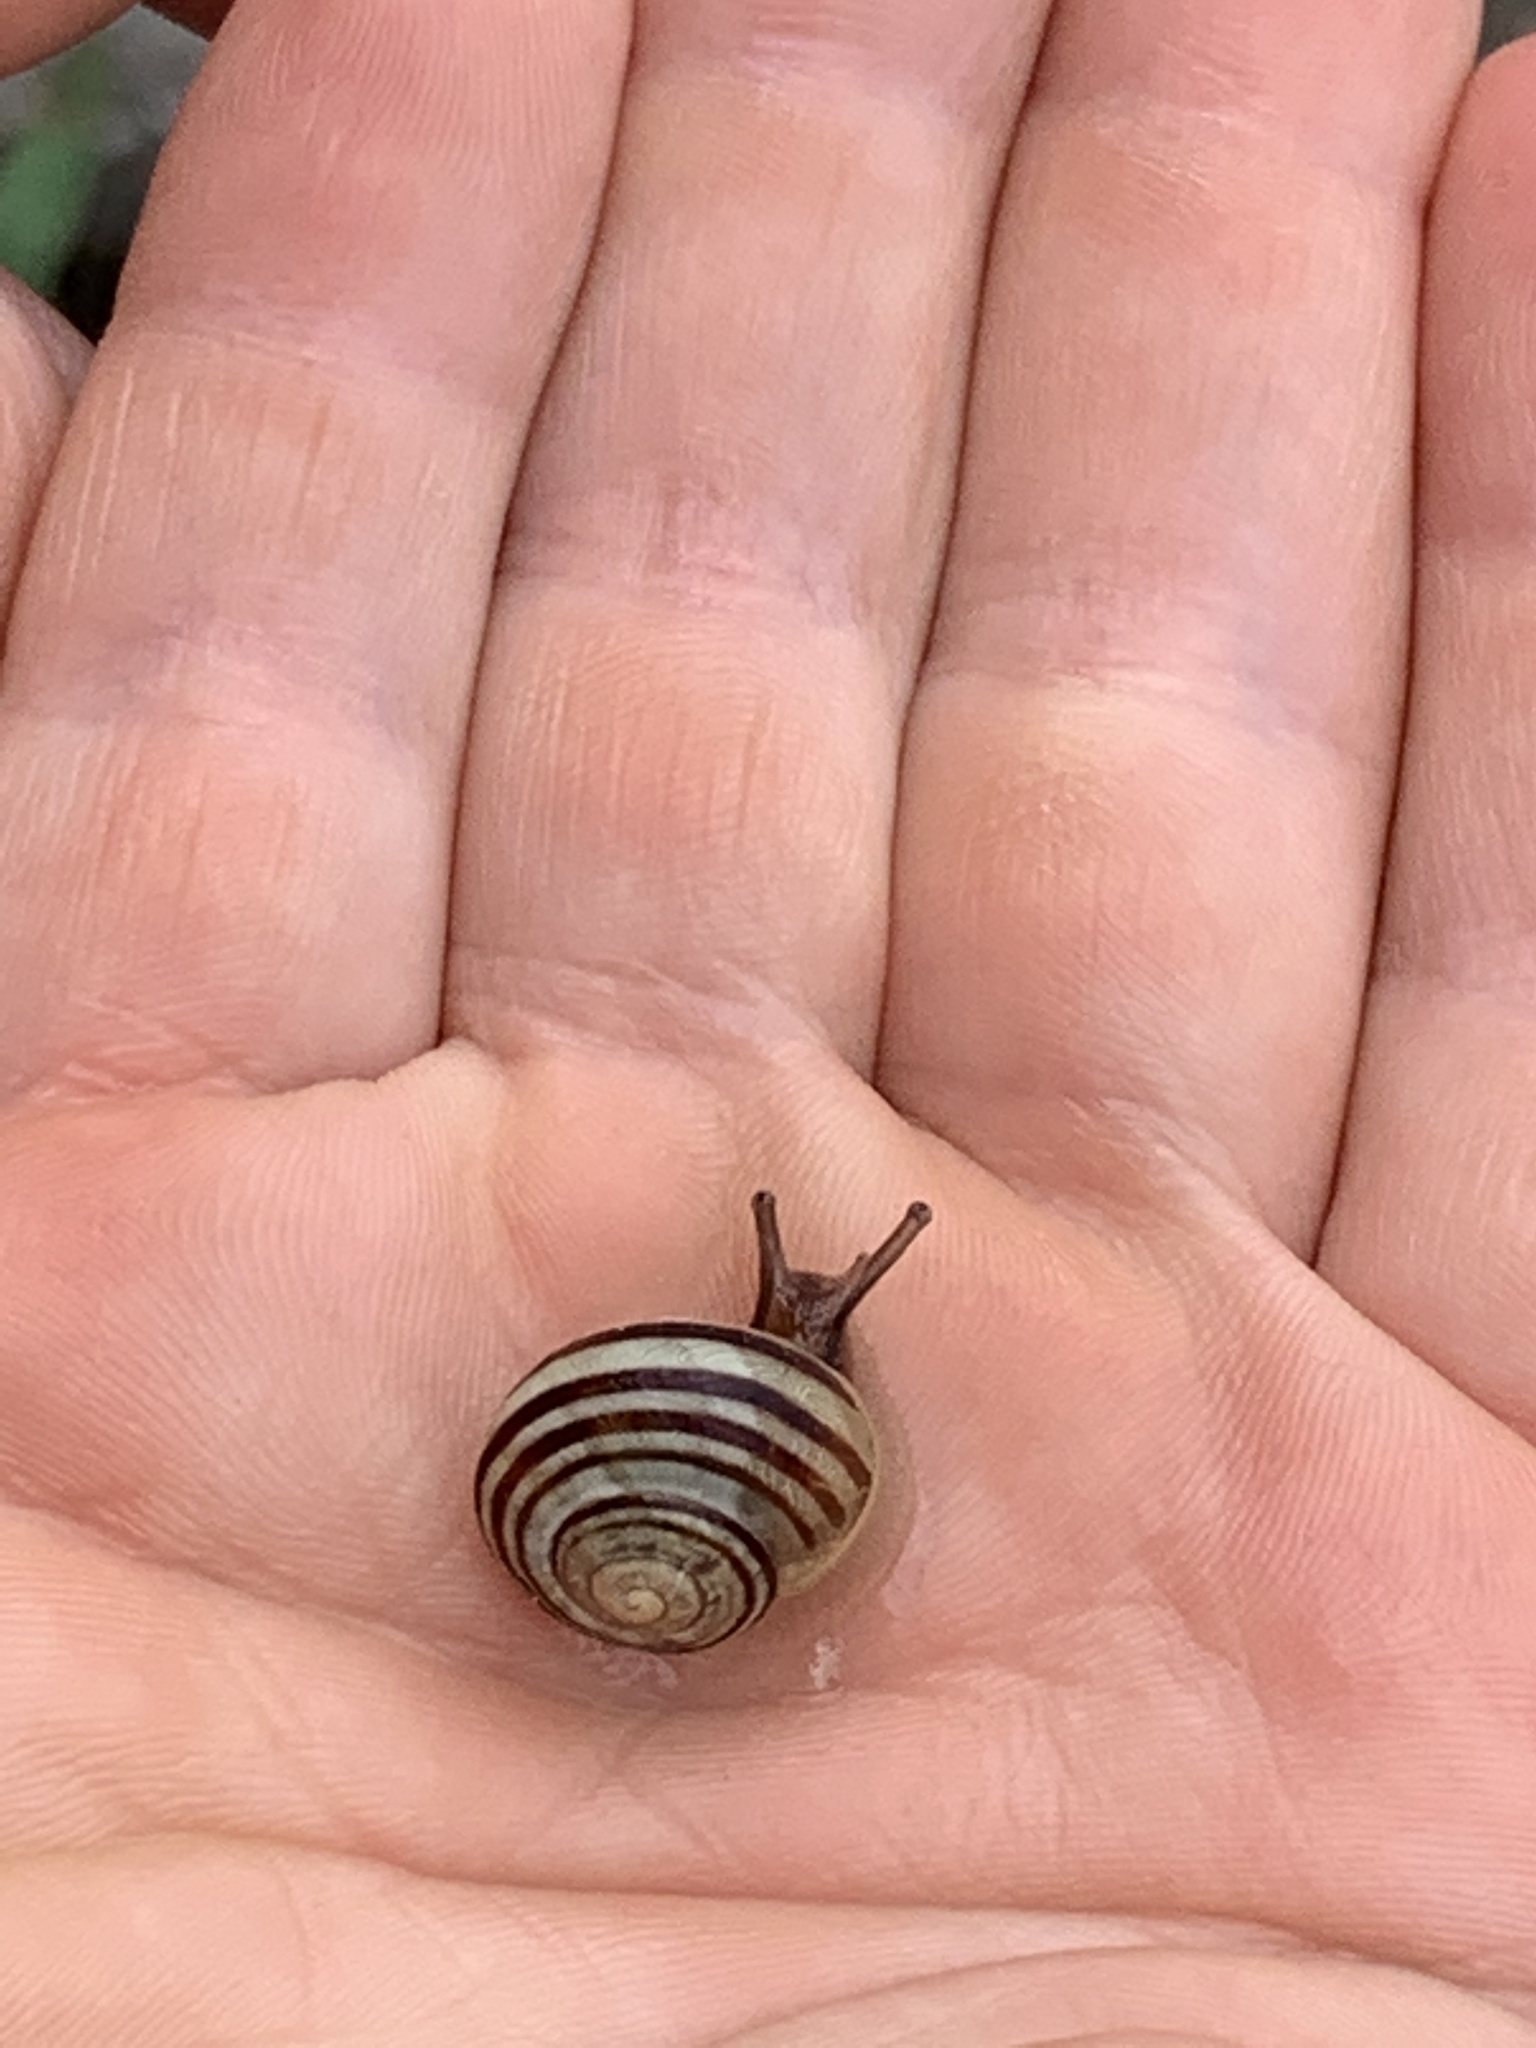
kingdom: Animalia
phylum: Mollusca
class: Gastropoda
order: Stylommatophora
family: Helicidae
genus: Cepaea
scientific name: Cepaea
